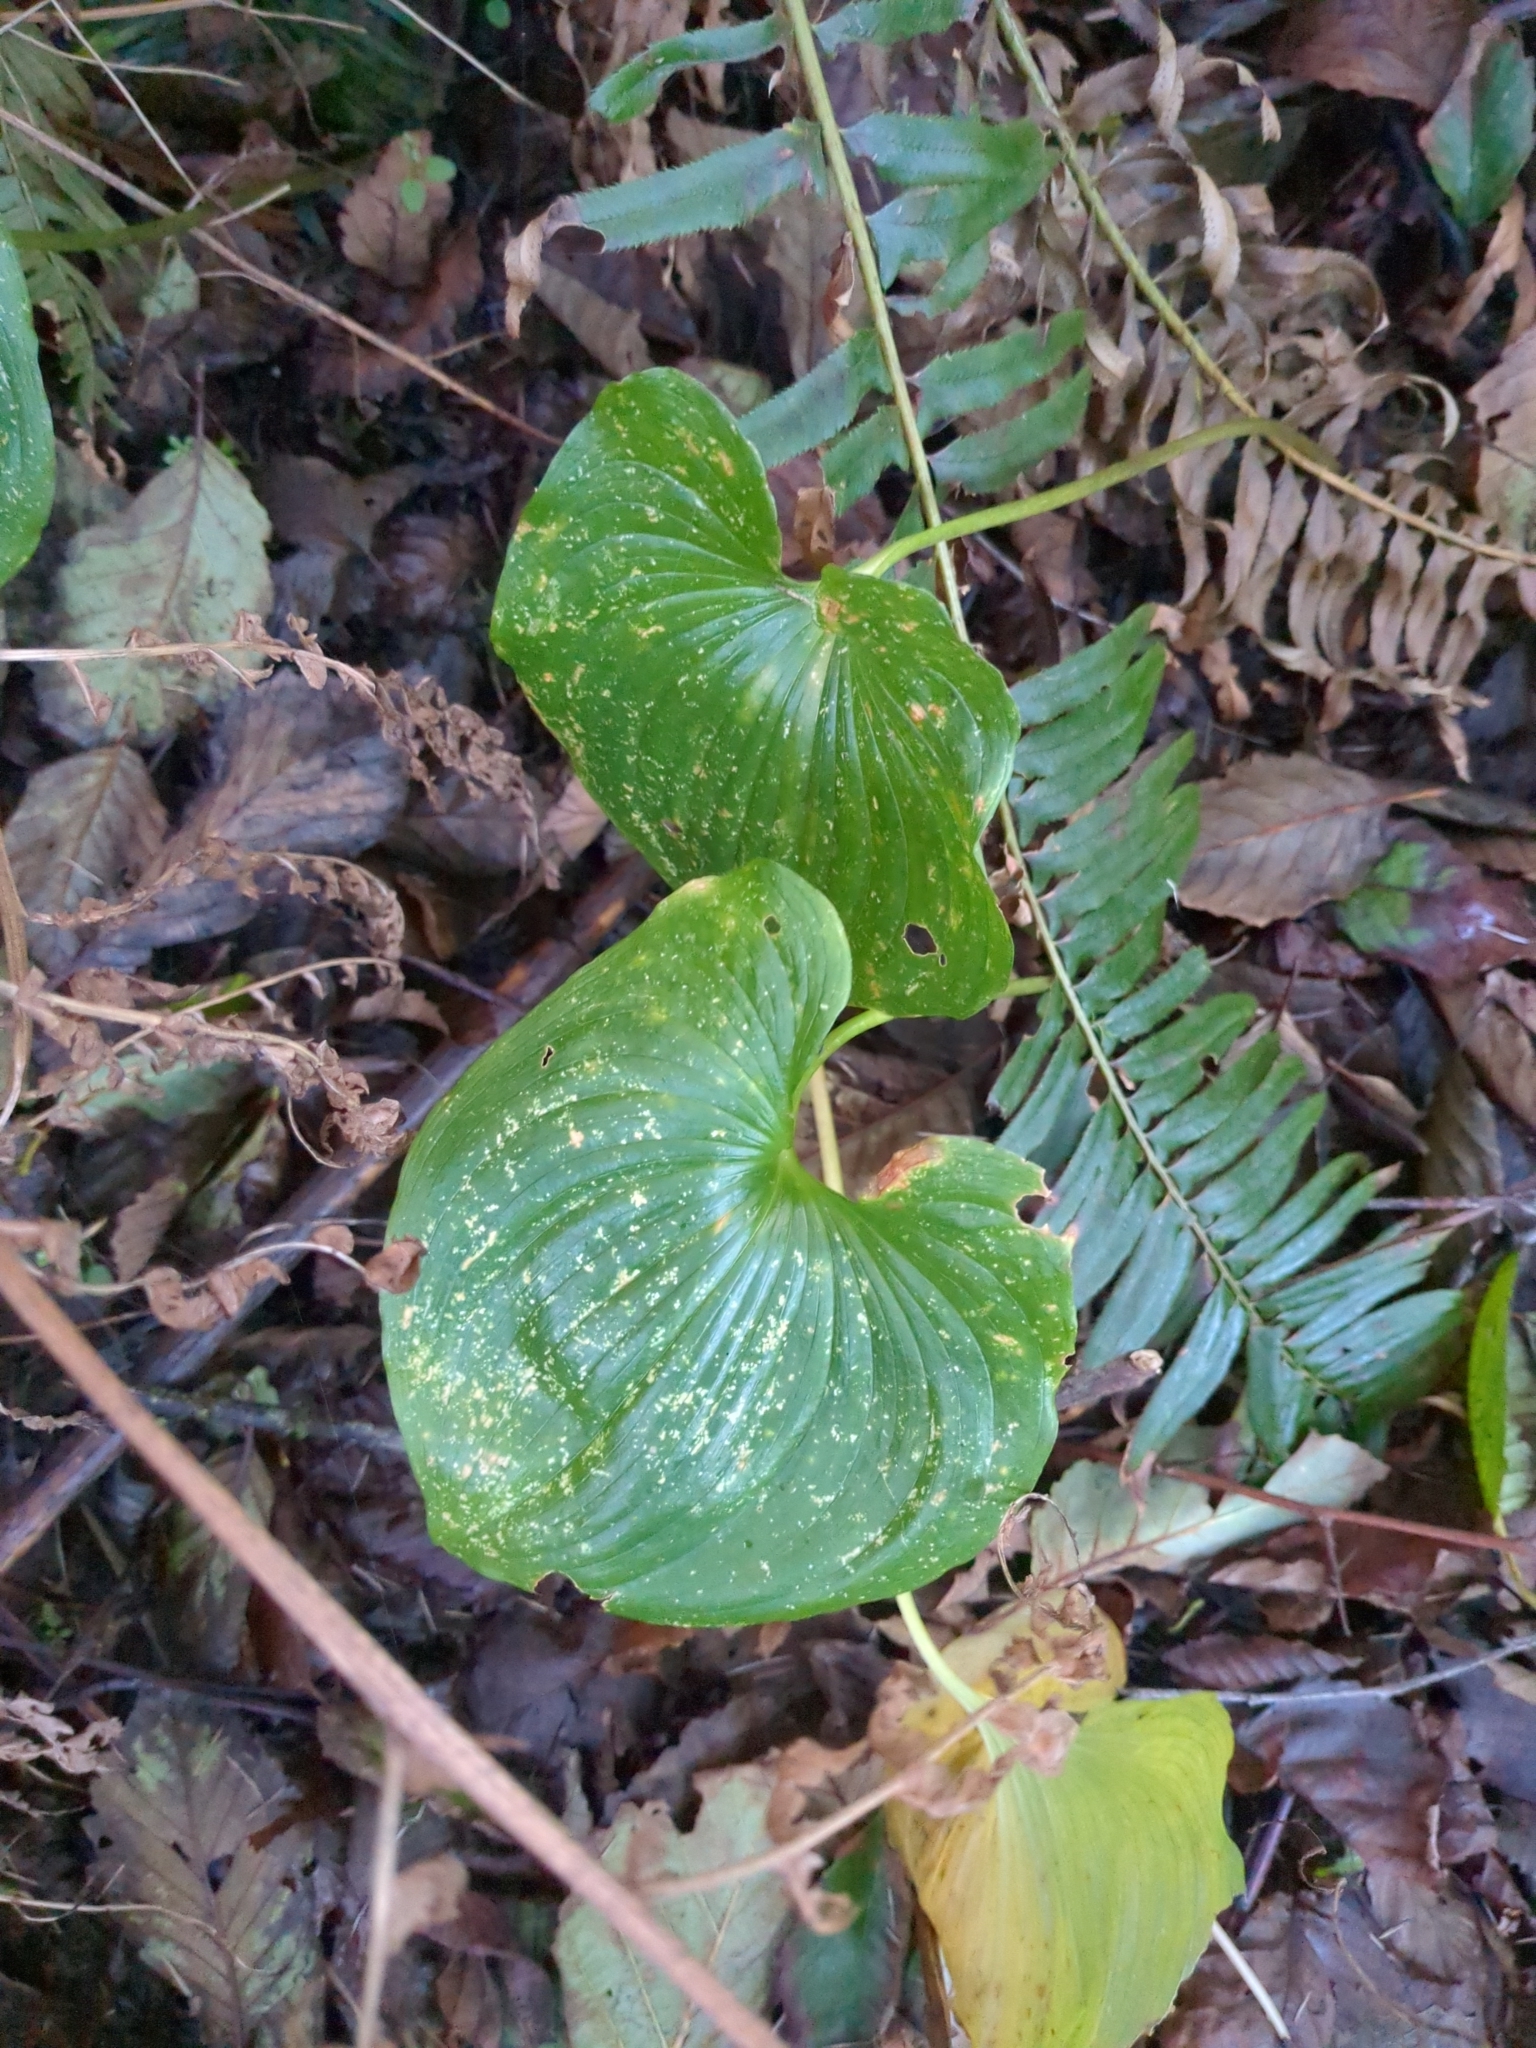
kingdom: Plantae
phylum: Tracheophyta
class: Liliopsida
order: Asparagales
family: Asparagaceae
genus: Maianthemum
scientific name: Maianthemum dilatatum
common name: False lily-of-the-valley
